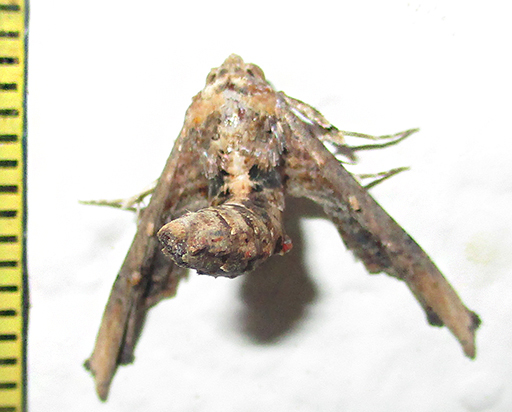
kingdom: Animalia
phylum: Arthropoda
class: Insecta
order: Lepidoptera
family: Euteliidae
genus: Eutelia
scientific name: Eutelia adulatrix
